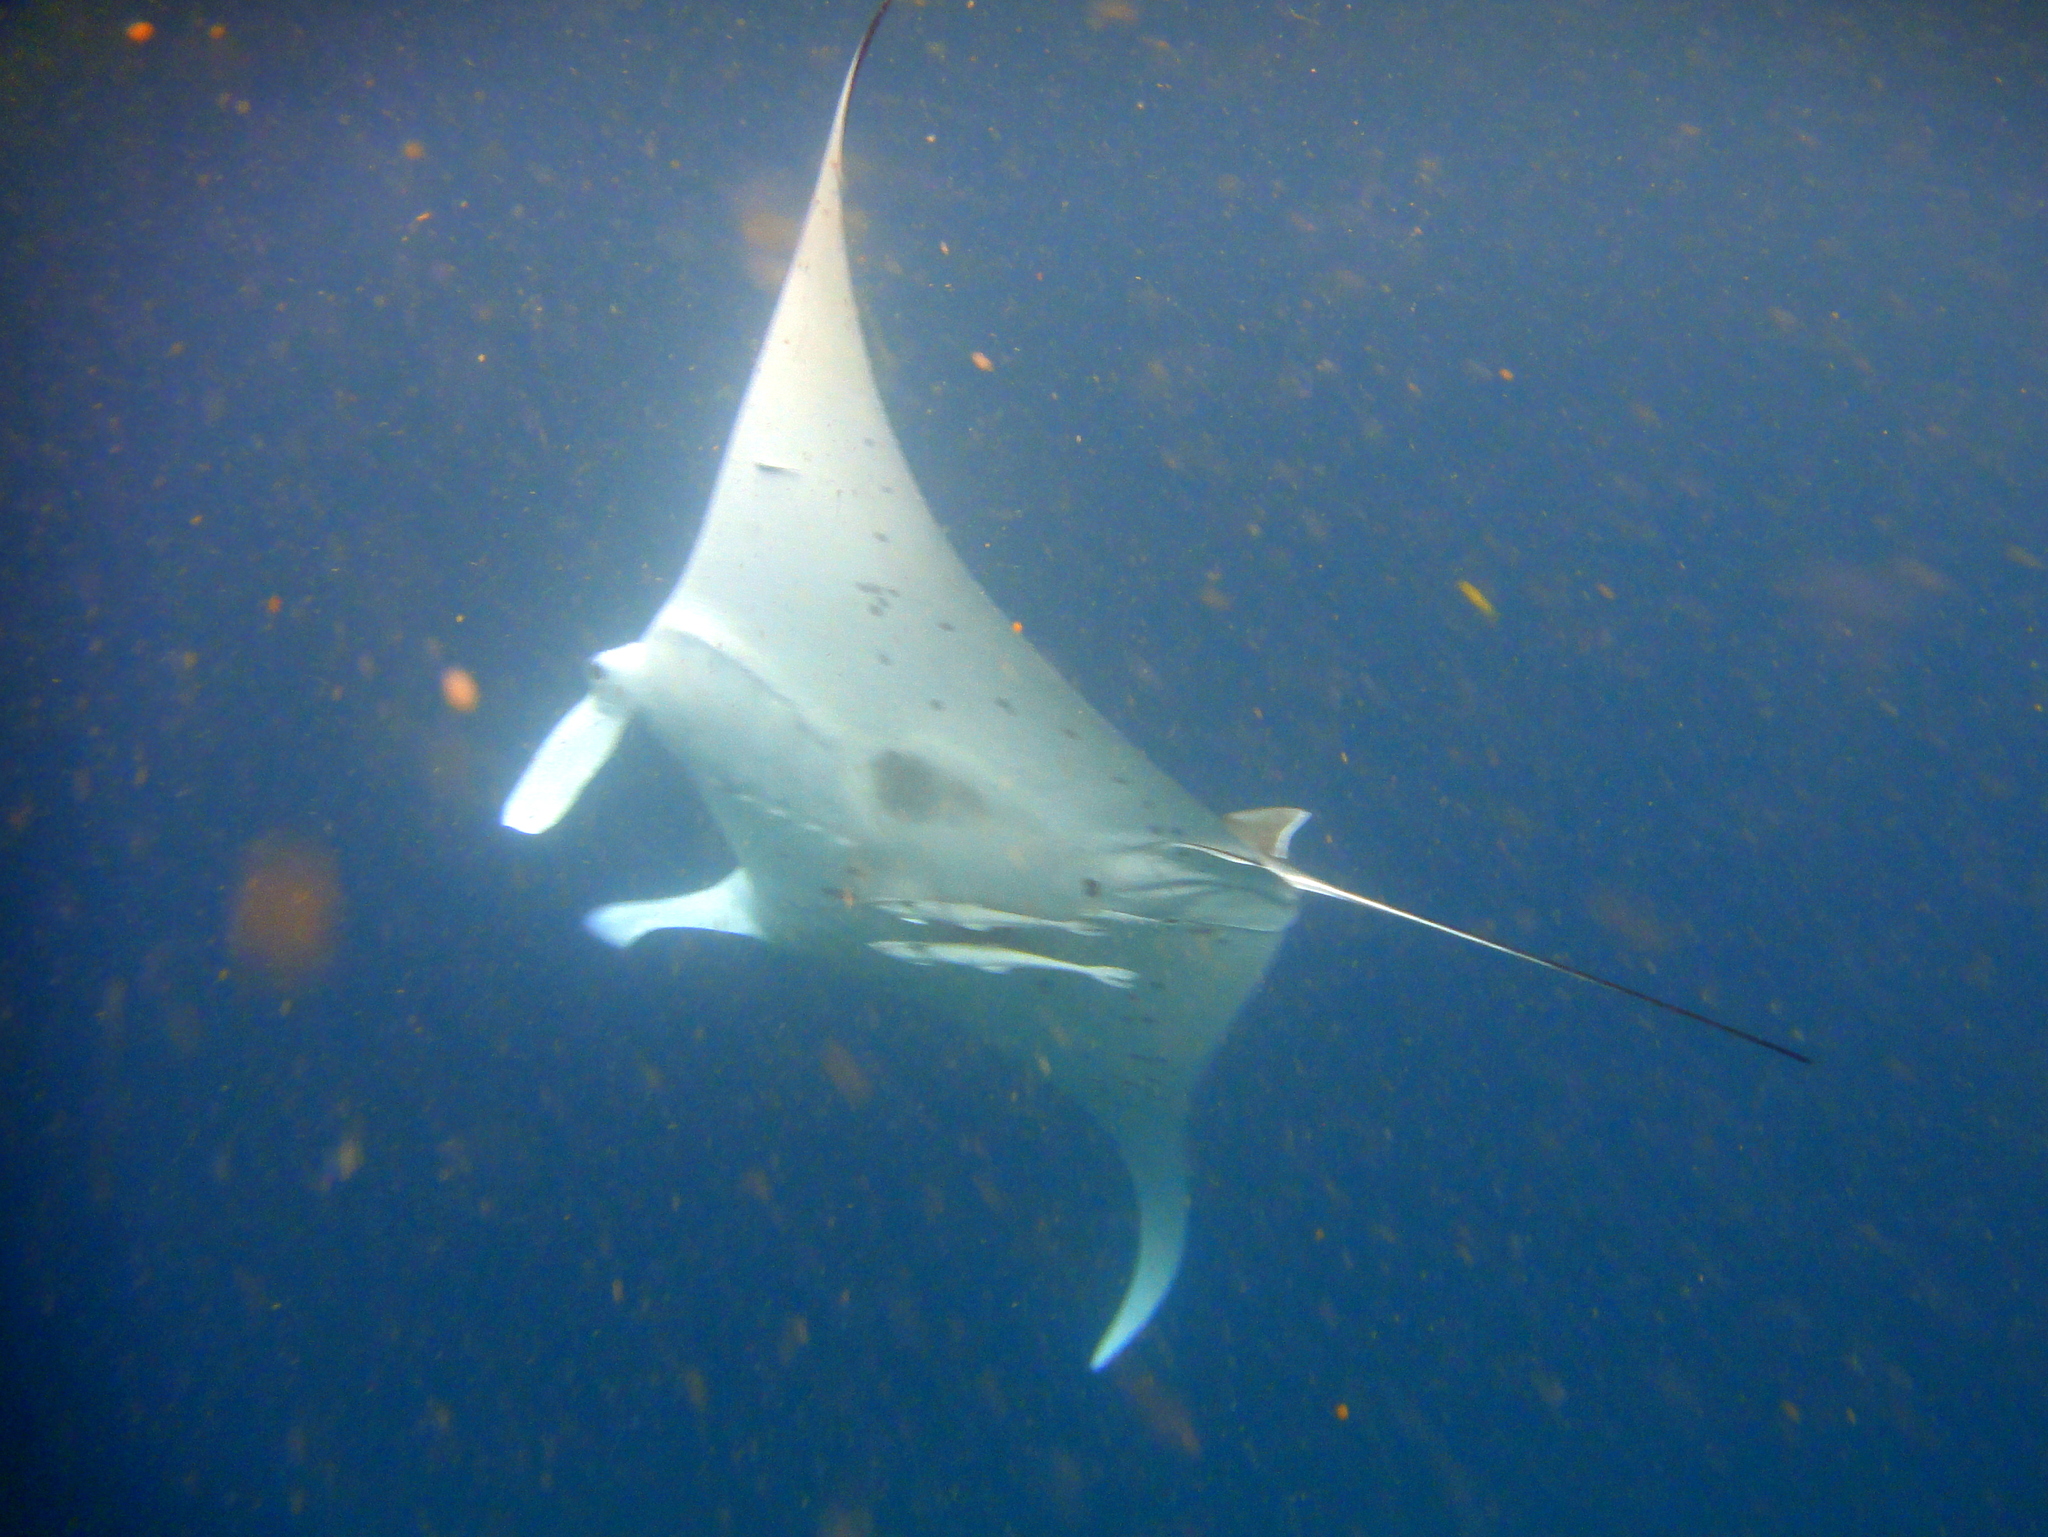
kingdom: Animalia
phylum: Chordata
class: Elasmobranchii
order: Myliobatiformes
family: Myliobatidae
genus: Mobula
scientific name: Mobula alfredi
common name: Reef manta ray
